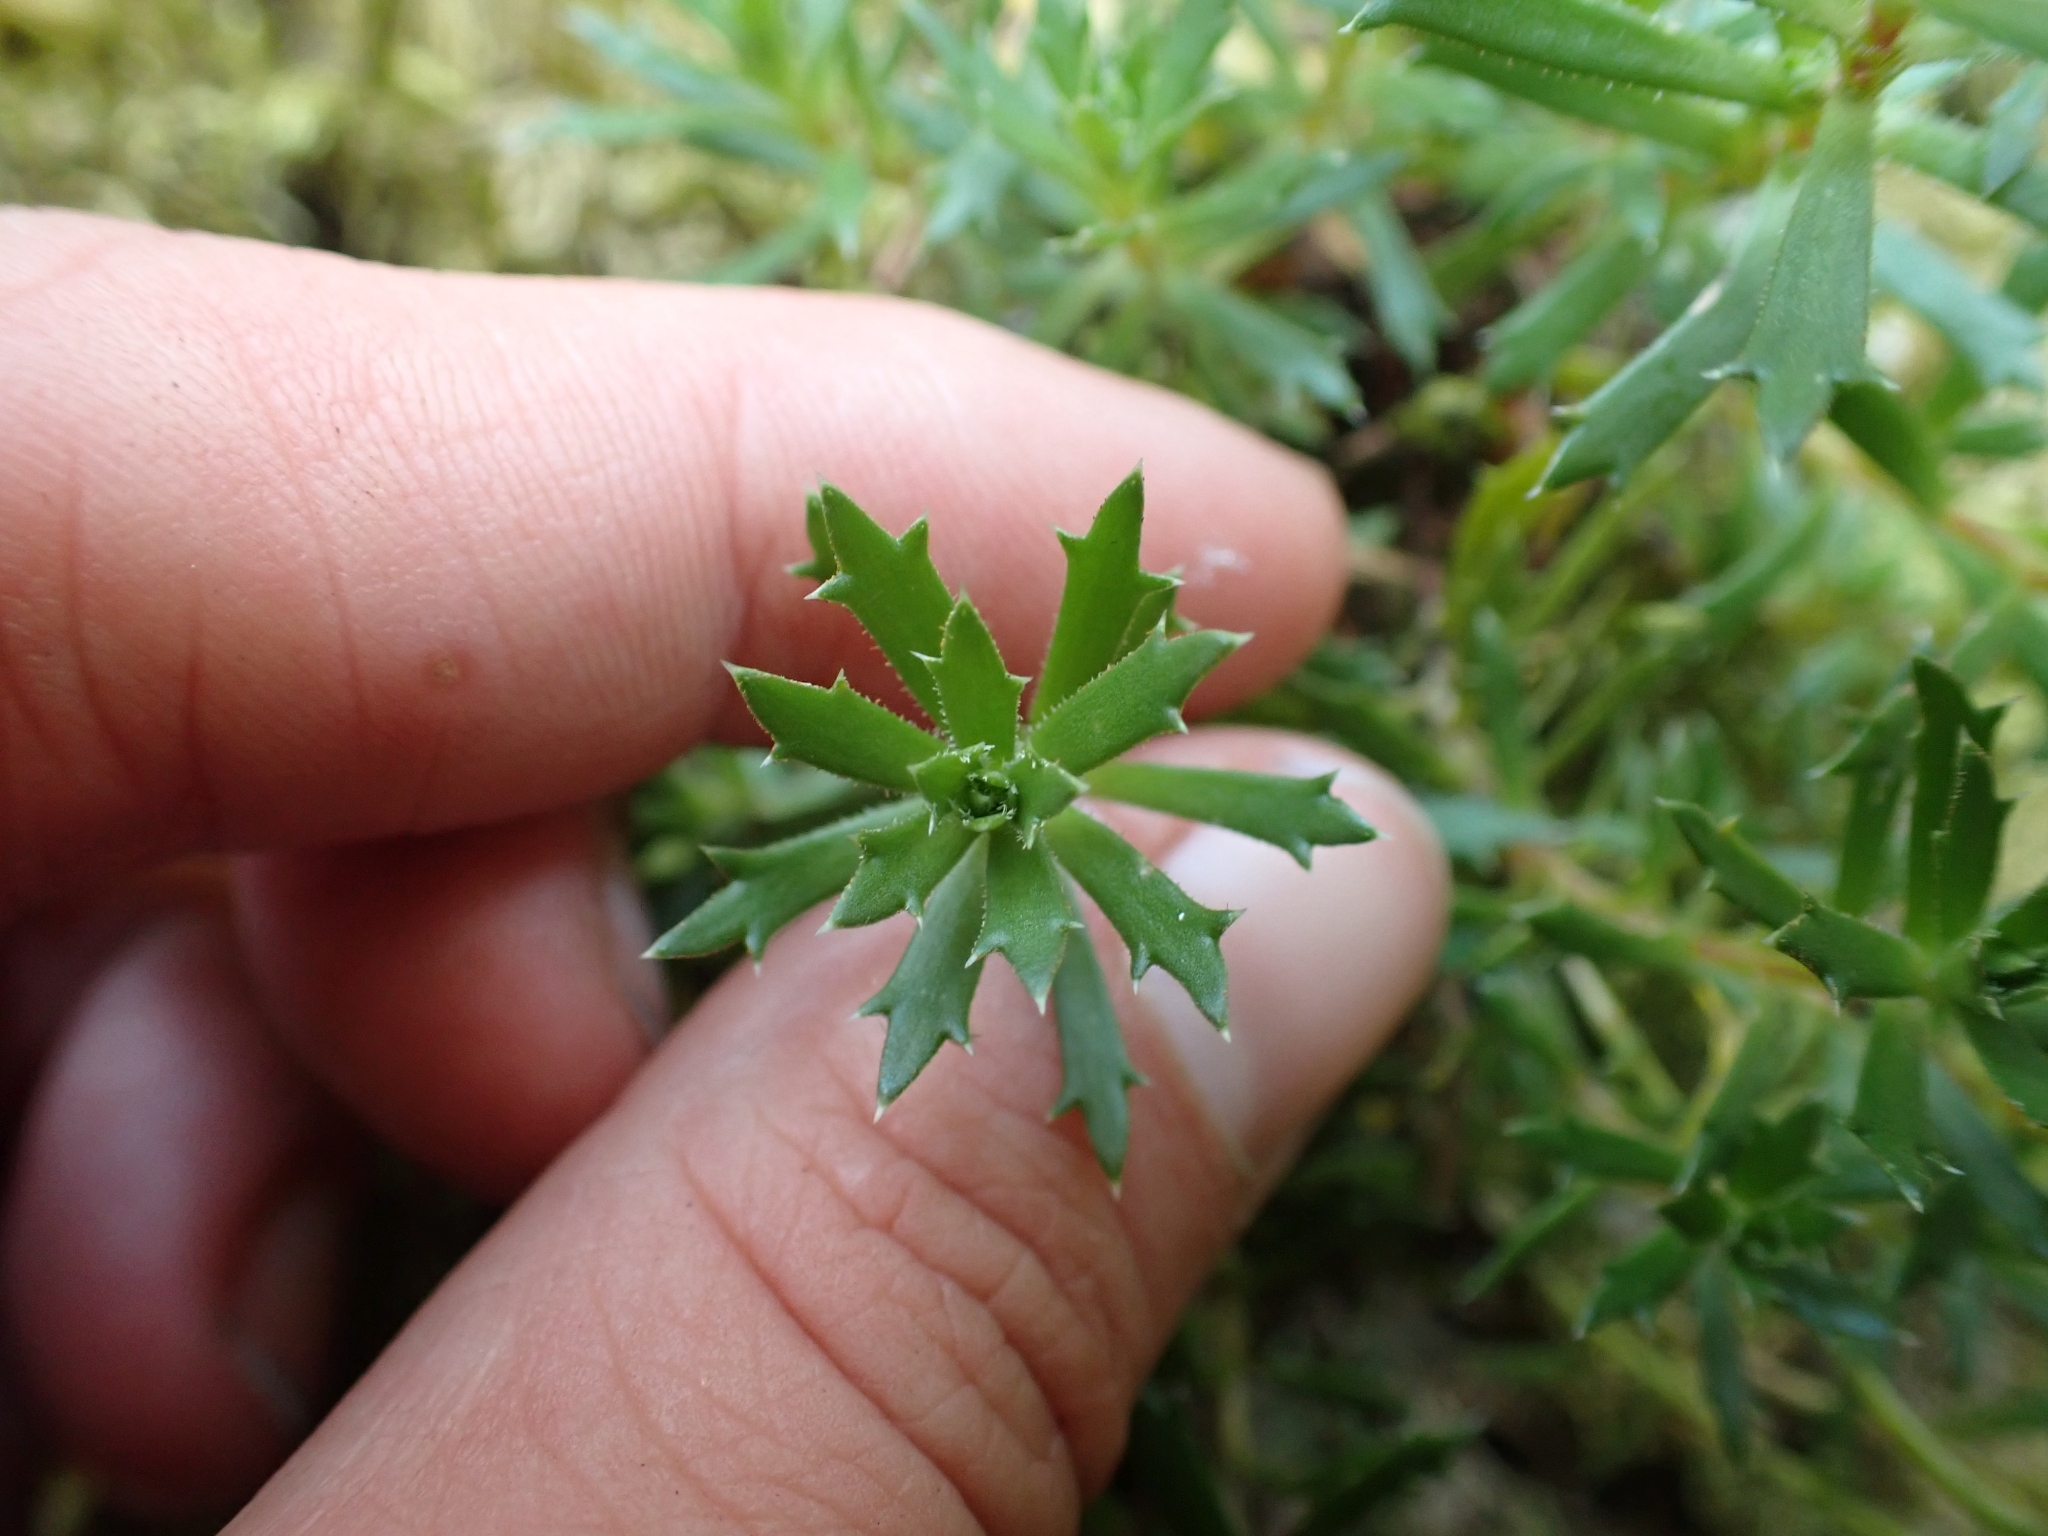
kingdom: Plantae
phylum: Tracheophyta
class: Magnoliopsida
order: Saxifragales
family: Saxifragaceae
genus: Saxifraga
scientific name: Saxifraga tricuspidata
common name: Prickly saxifrage
